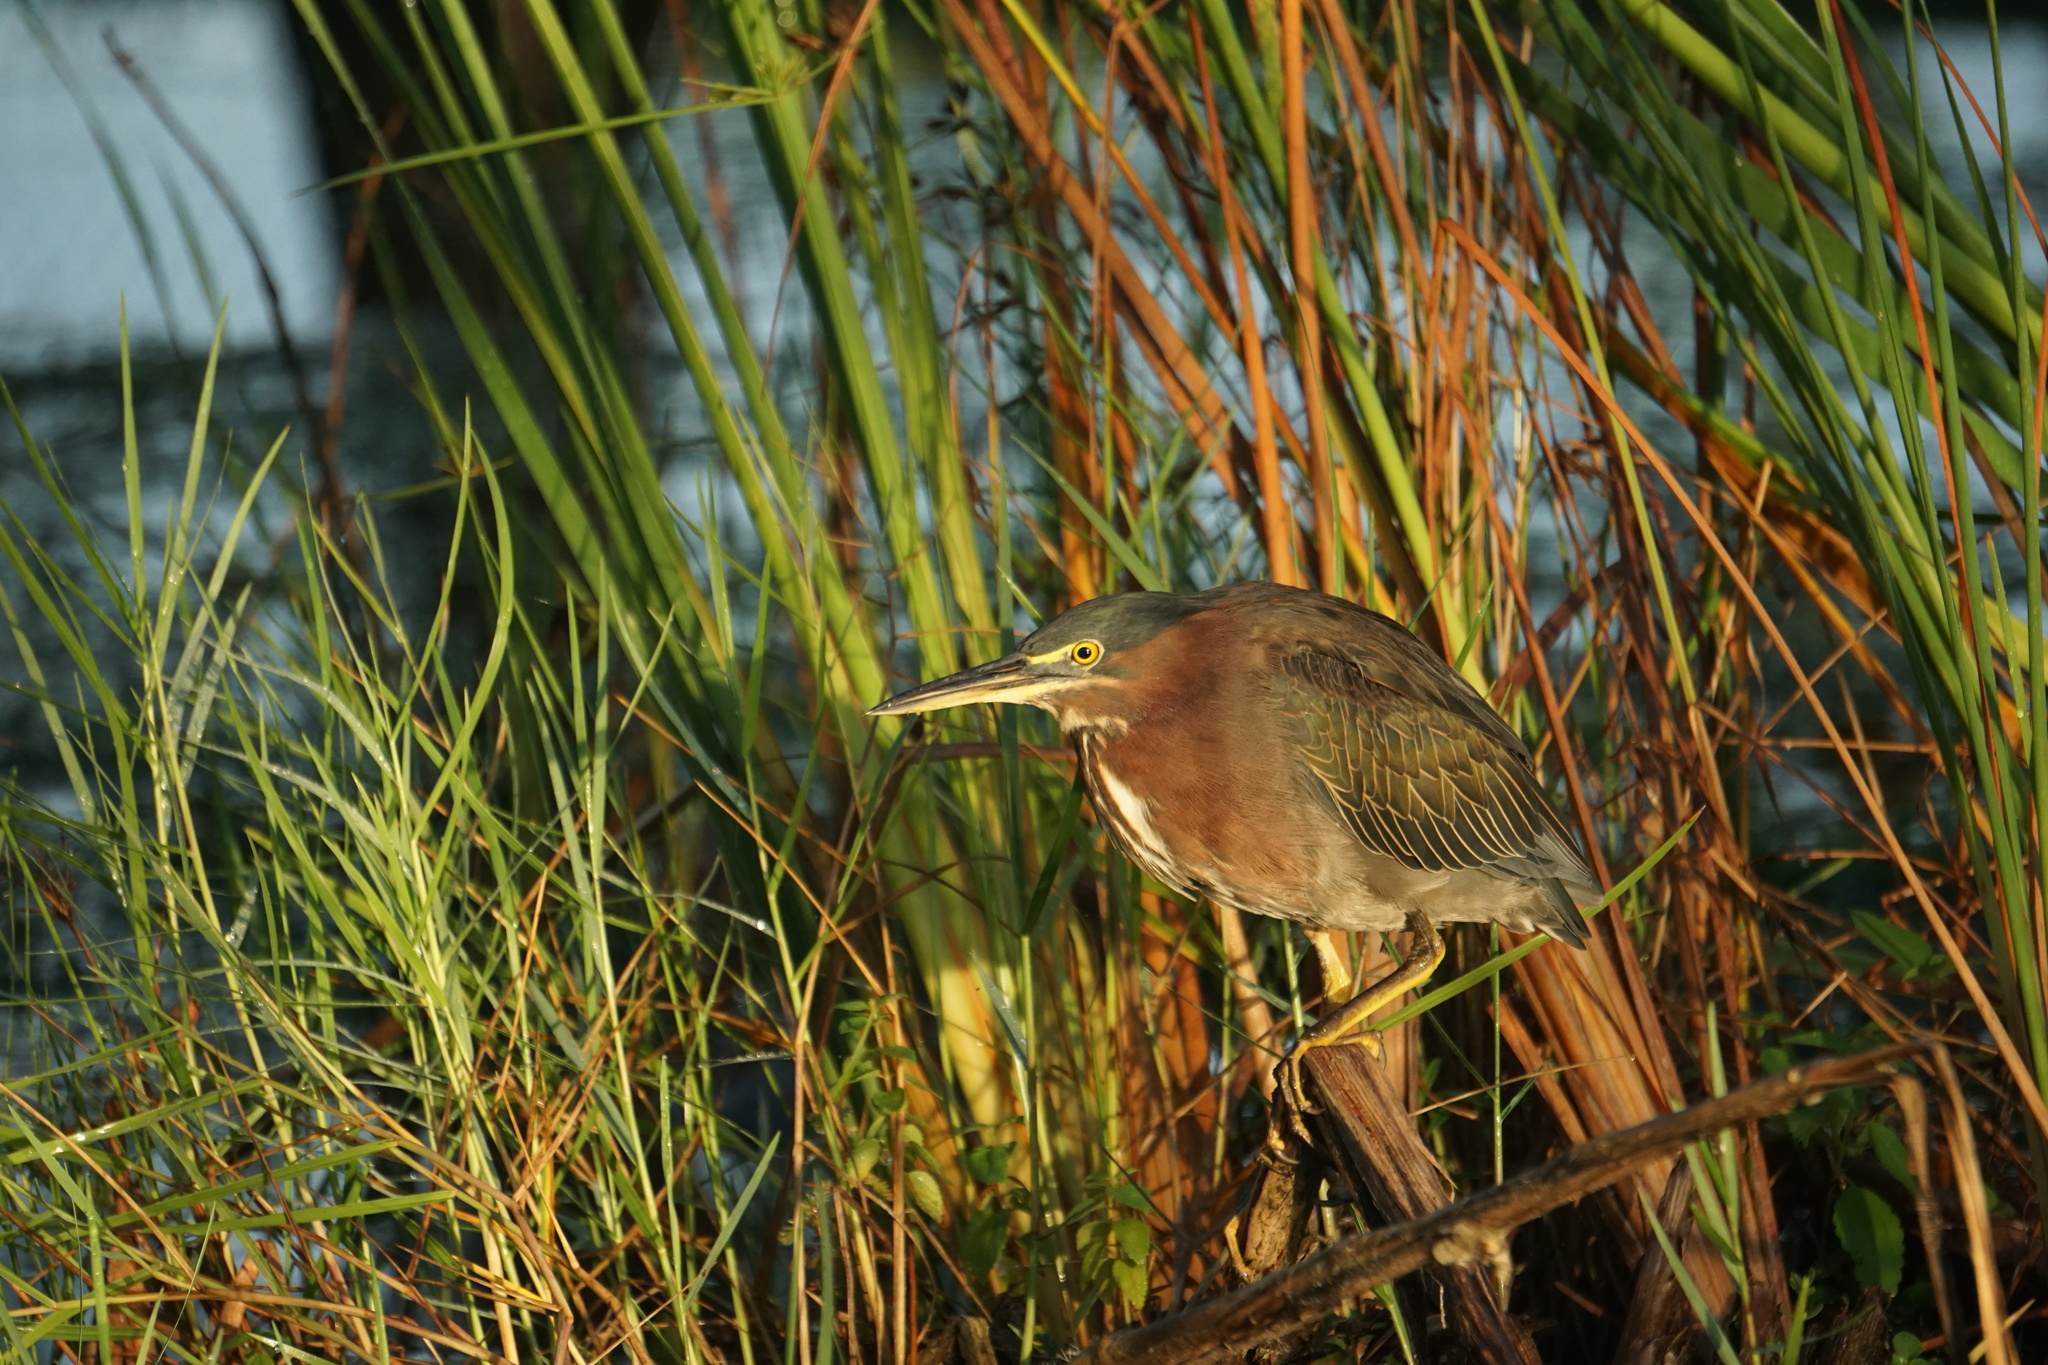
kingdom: Animalia
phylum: Chordata
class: Aves
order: Pelecaniformes
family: Ardeidae
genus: Butorides
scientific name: Butorides virescens
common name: Green heron
